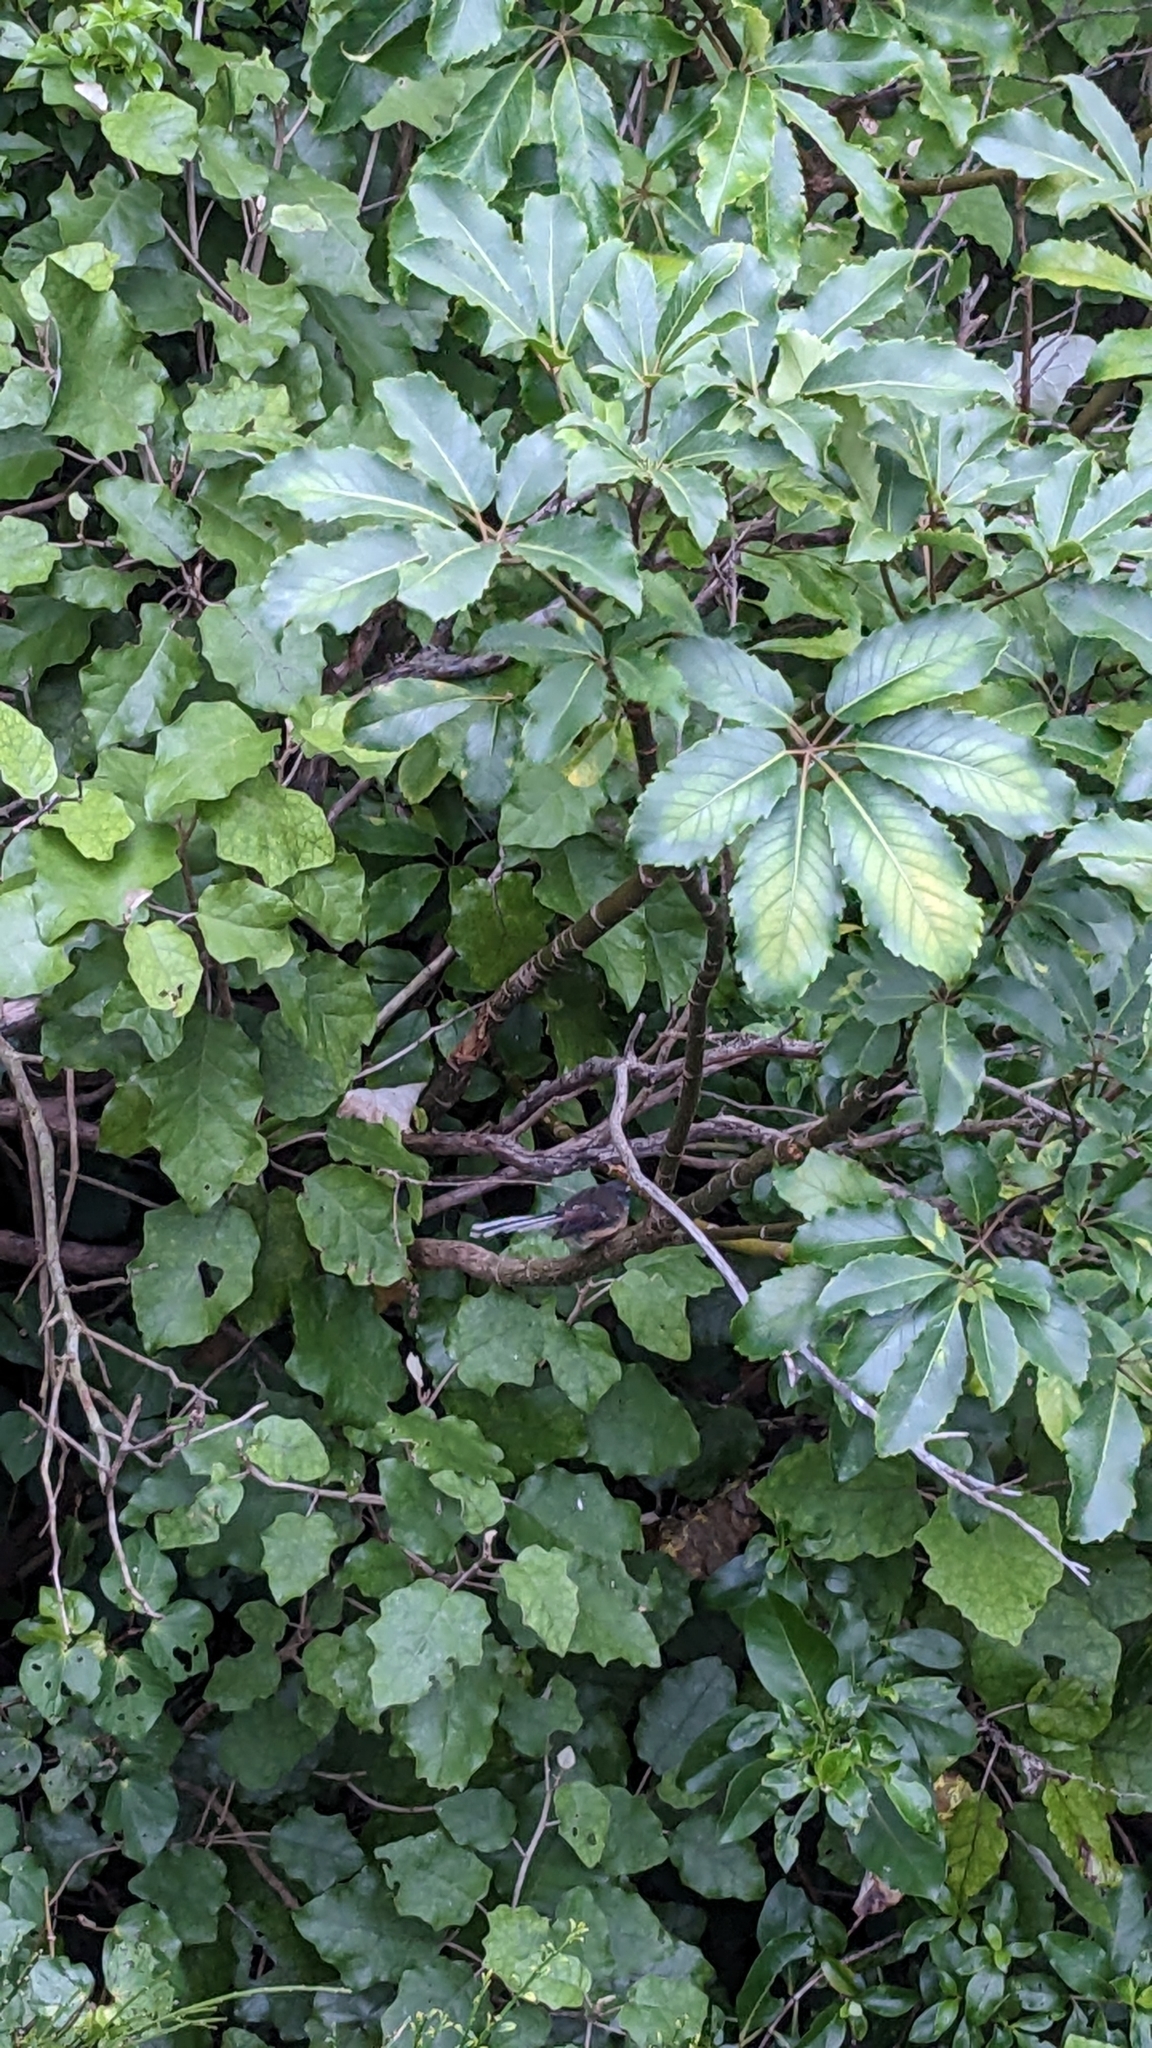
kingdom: Animalia
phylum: Chordata
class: Aves
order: Passeriformes
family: Rhipiduridae
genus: Rhipidura
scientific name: Rhipidura fuliginosa
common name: New zealand fantail
